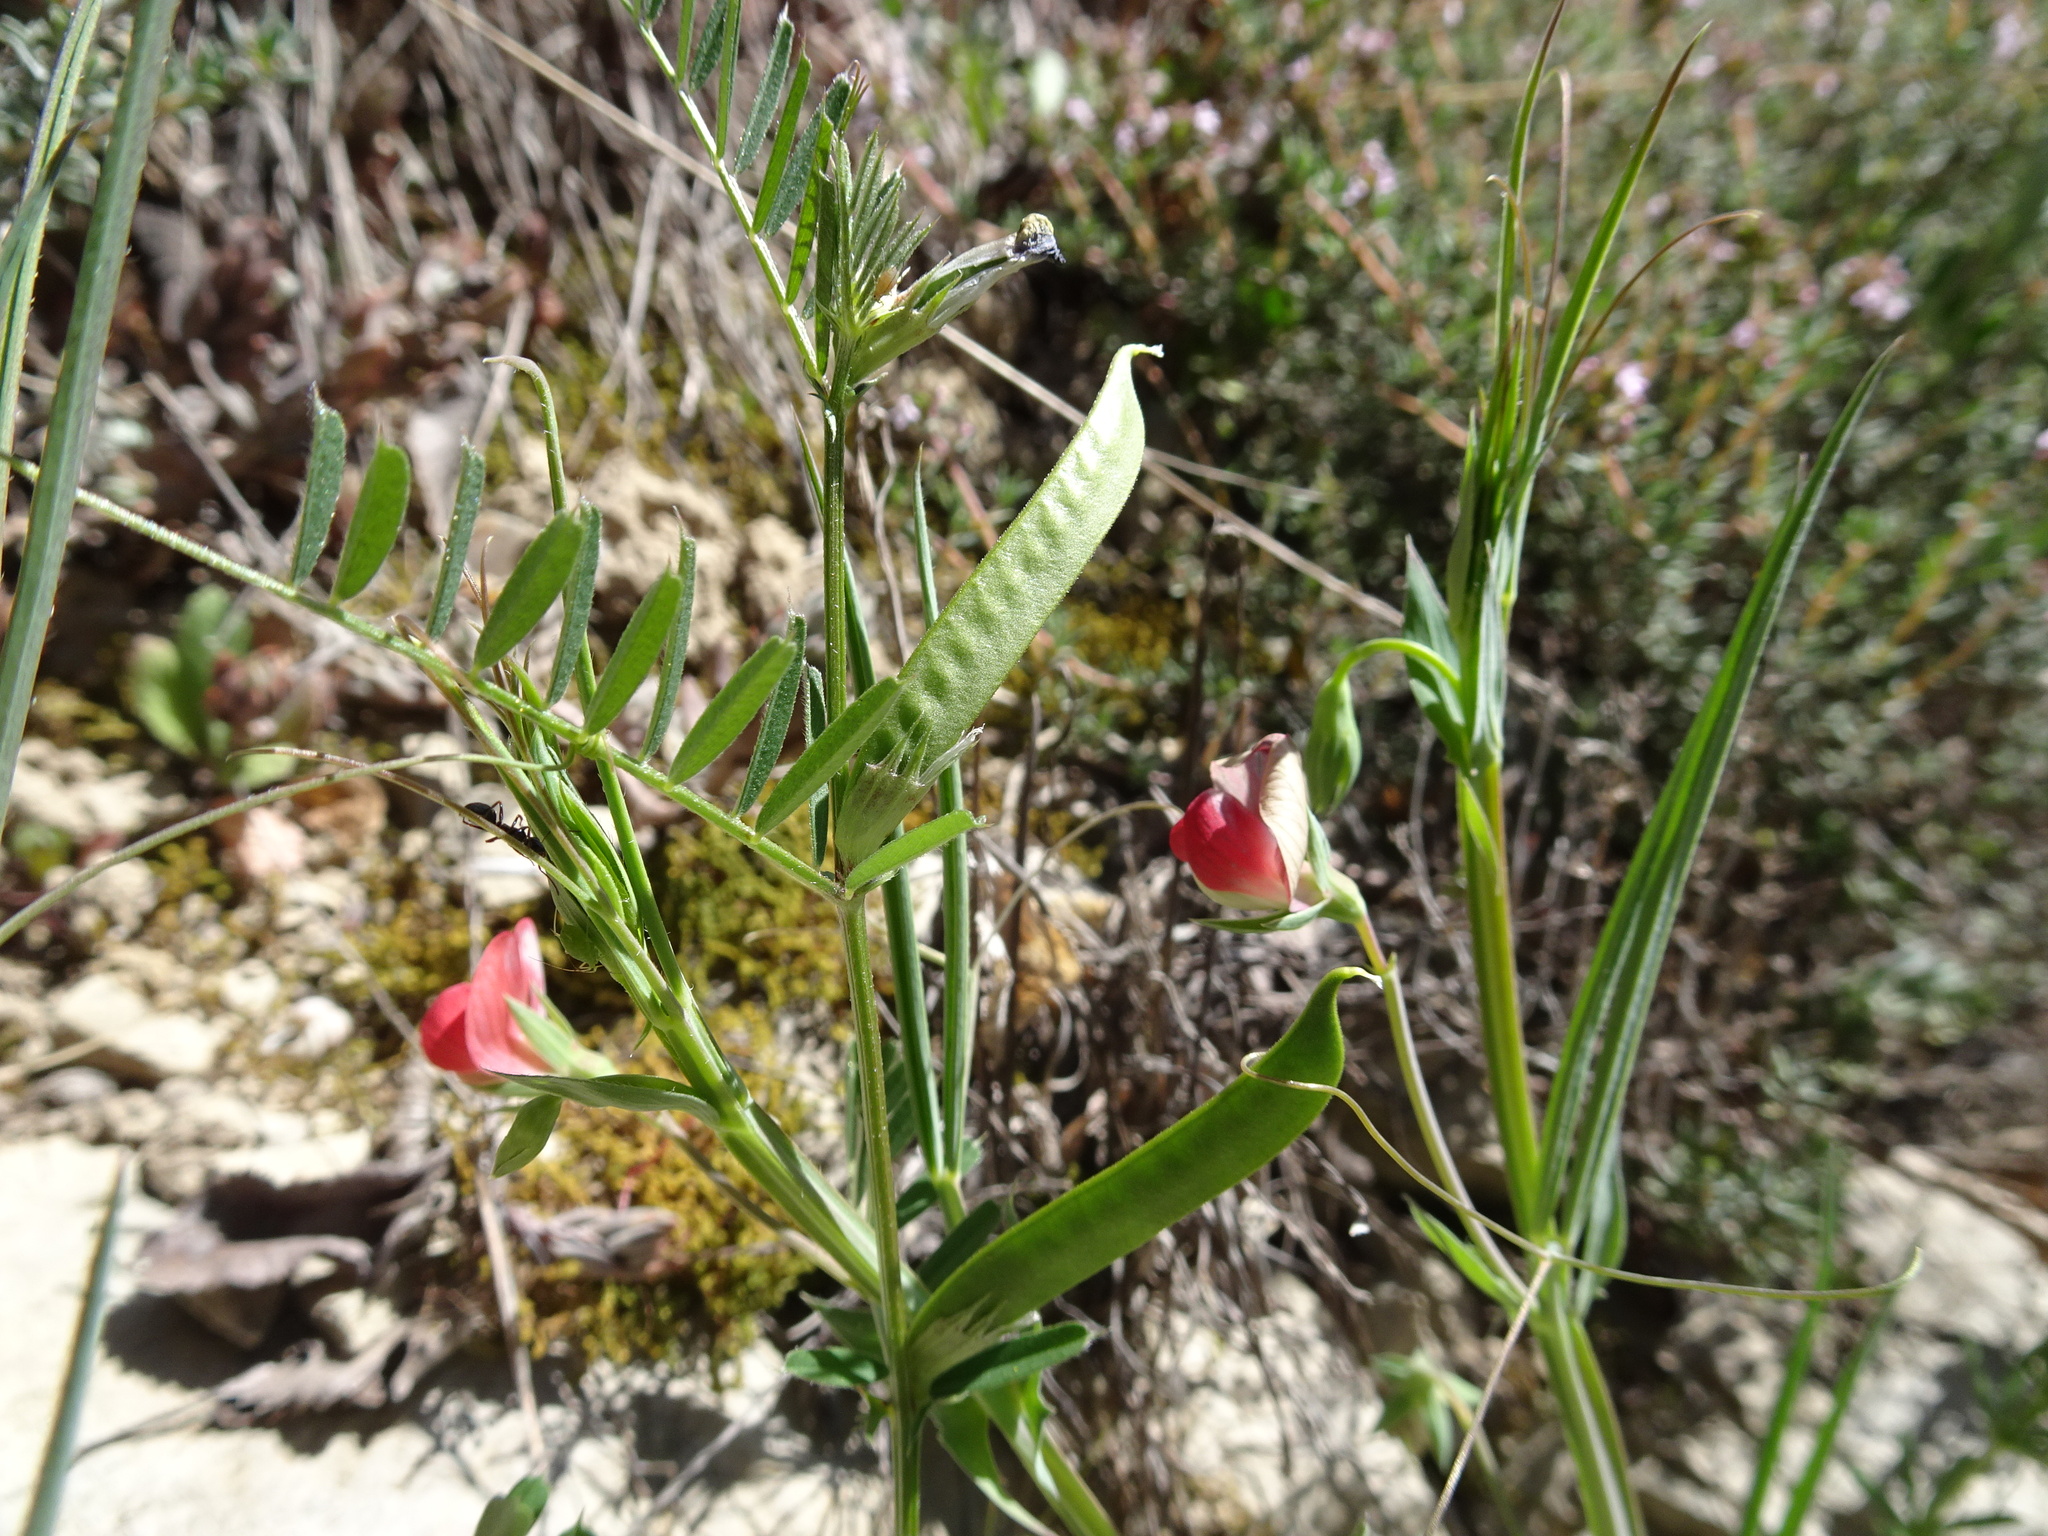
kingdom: Plantae
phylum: Tracheophyta
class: Magnoliopsida
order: Fabales
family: Fabaceae
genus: Lathyrus
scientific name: Lathyrus cicera
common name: Red vetchling
